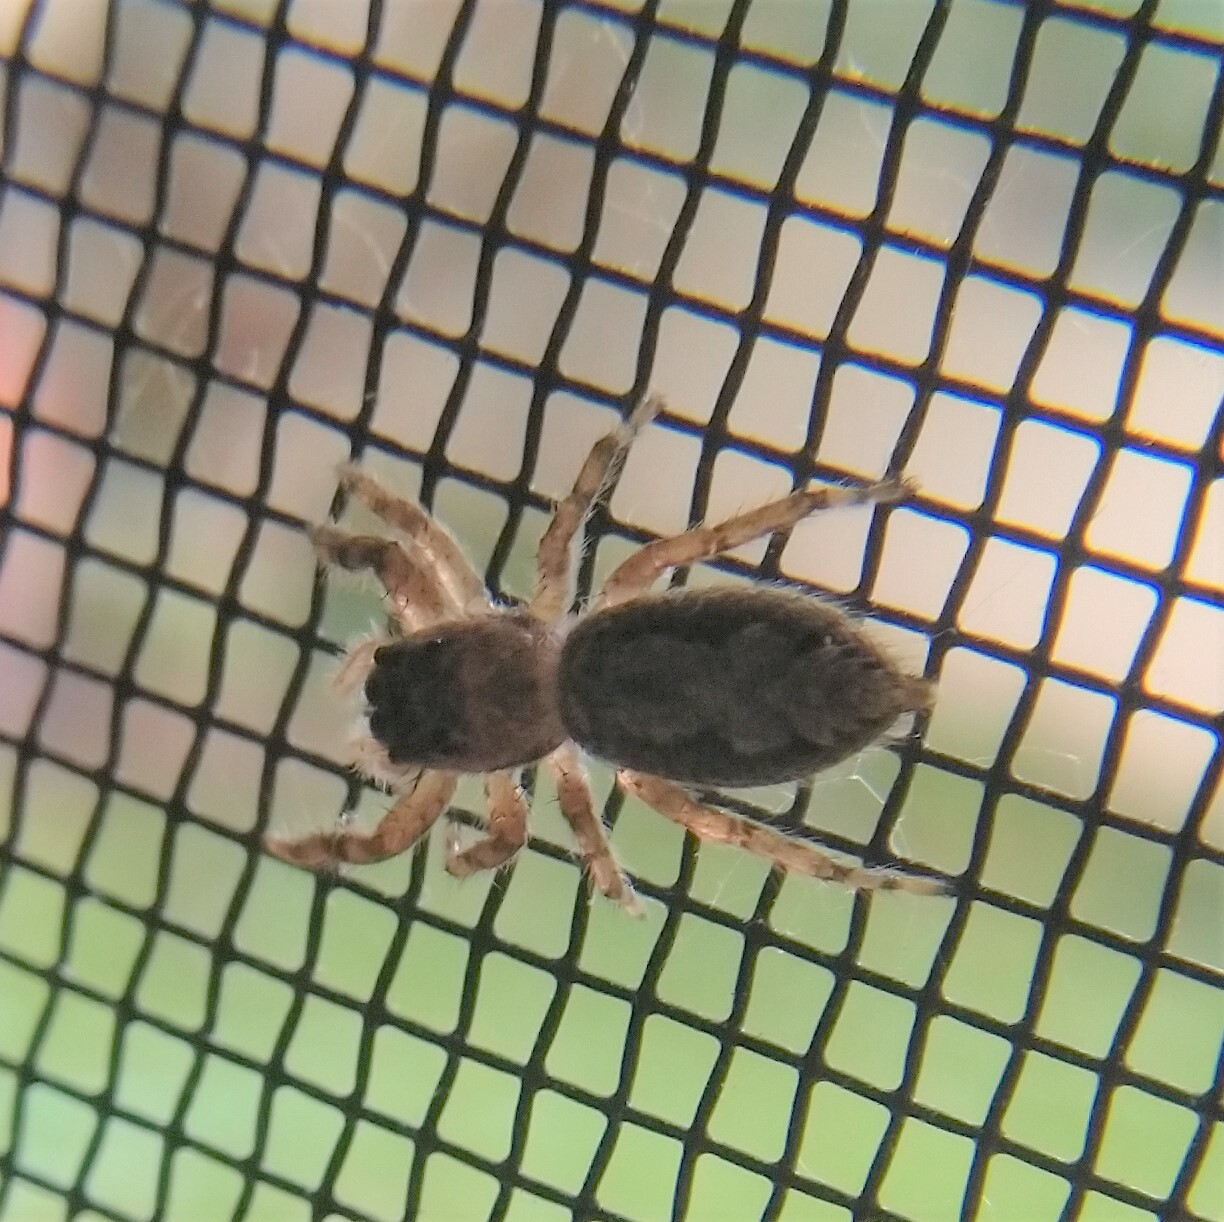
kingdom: Animalia
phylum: Arthropoda
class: Arachnida
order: Araneae
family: Salticidae
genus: Platycryptus
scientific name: Platycryptus undatus
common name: Tan jumping spider
